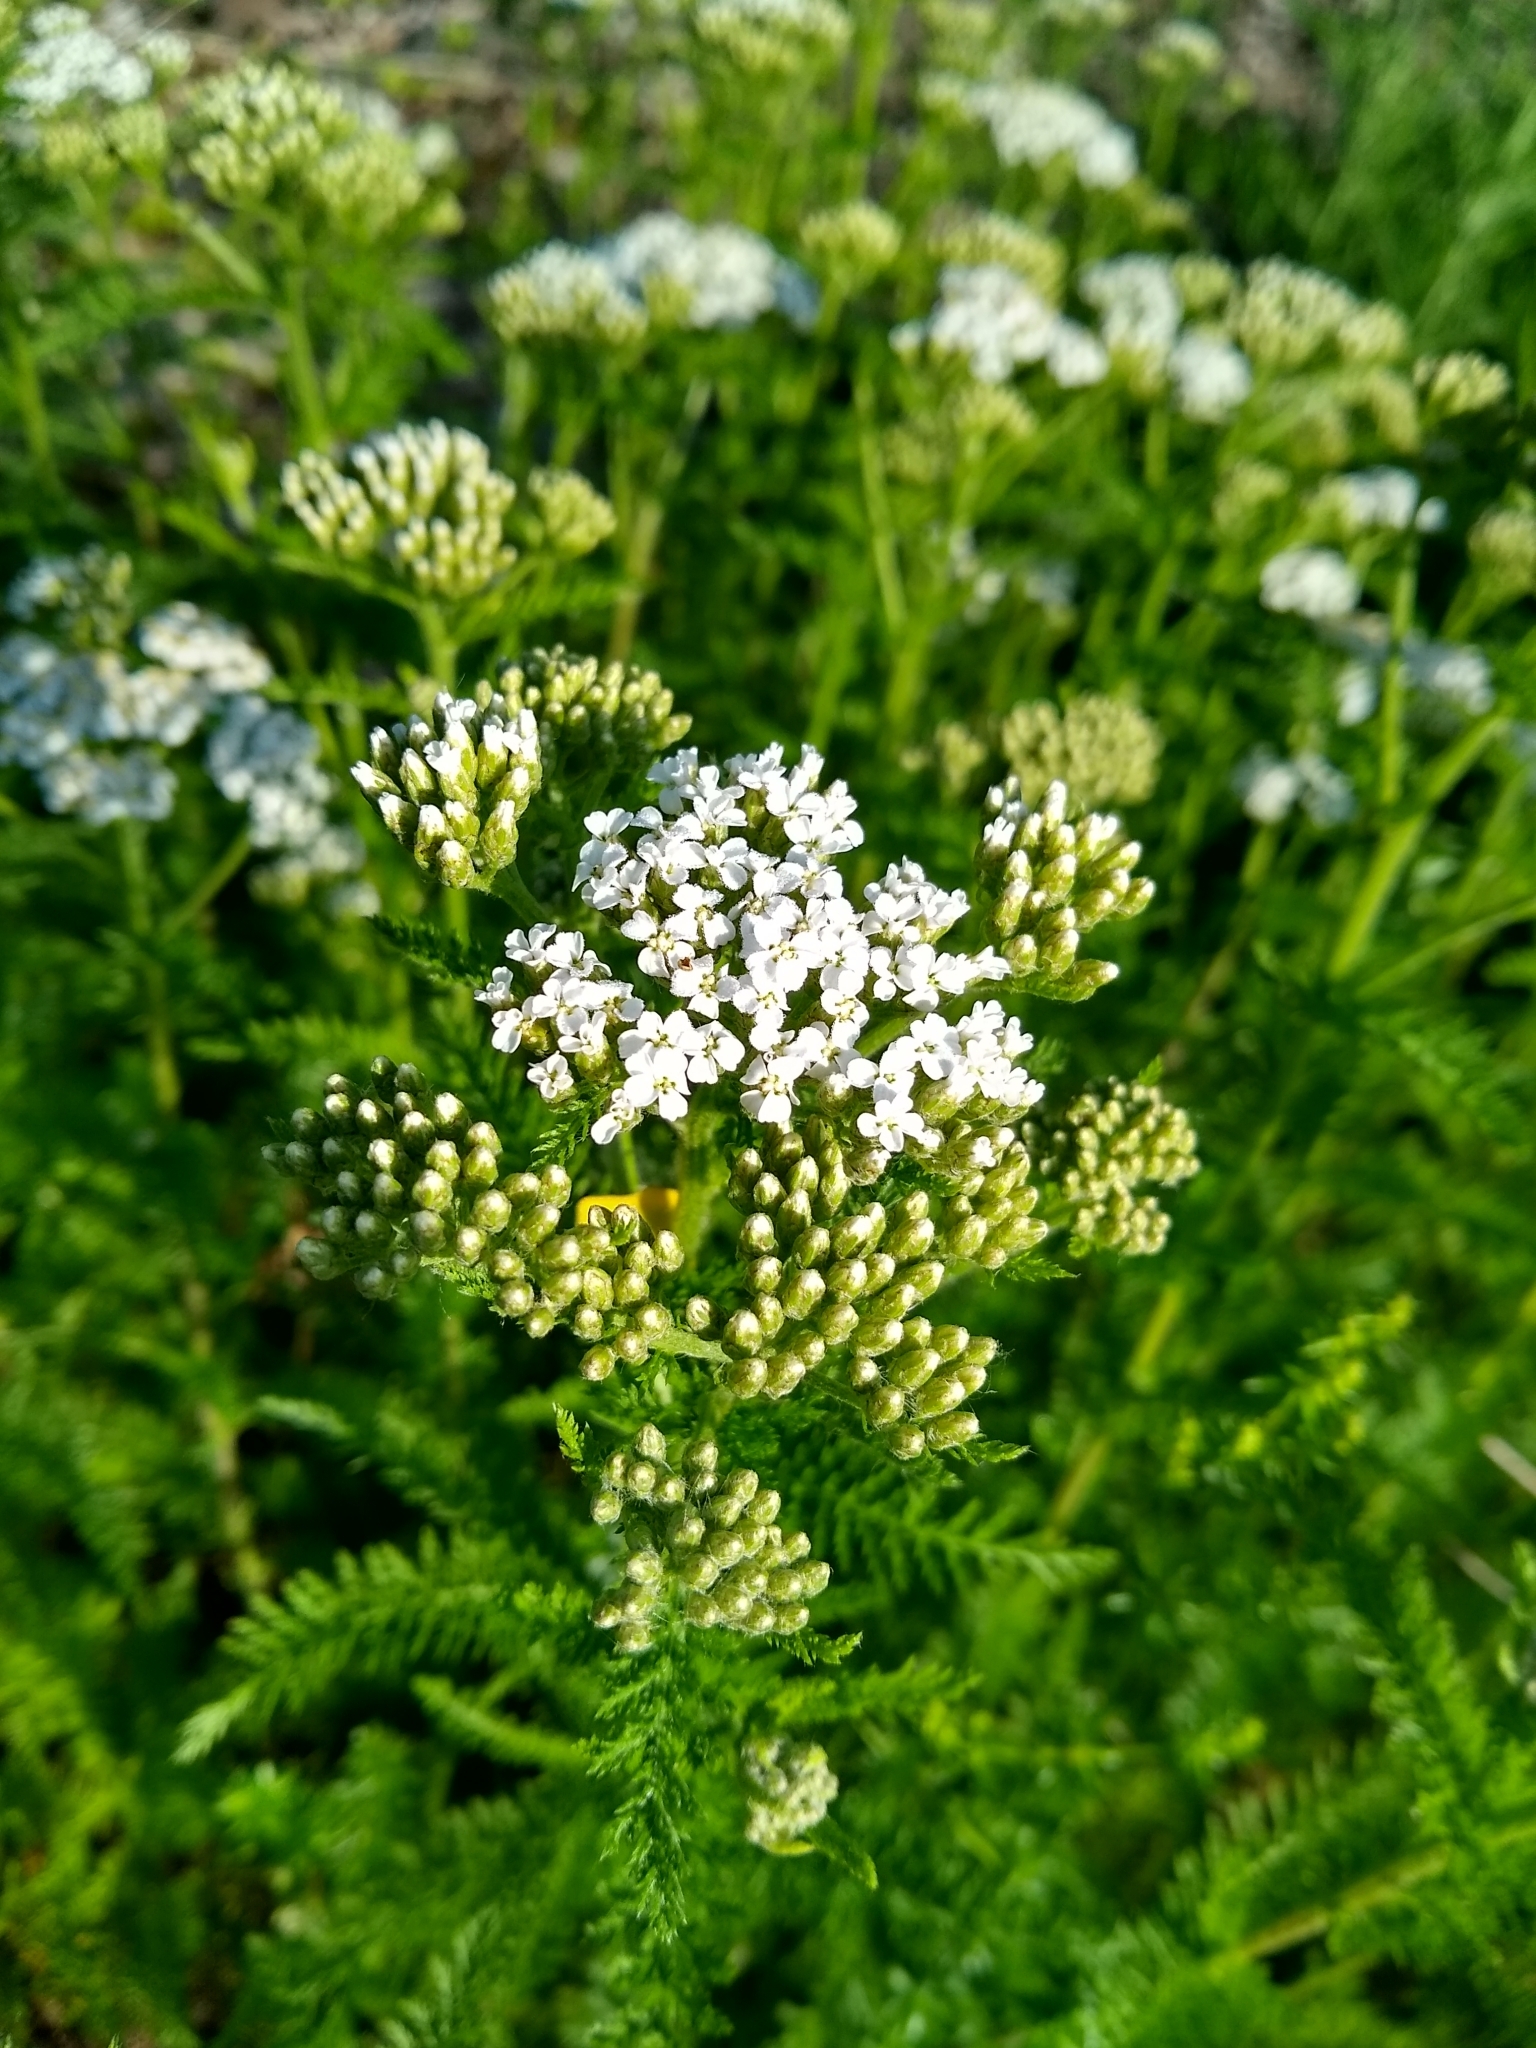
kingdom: Plantae
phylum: Tracheophyta
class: Magnoliopsida
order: Asterales
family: Asteraceae
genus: Achillea
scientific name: Achillea millefolium
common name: Yarrow
